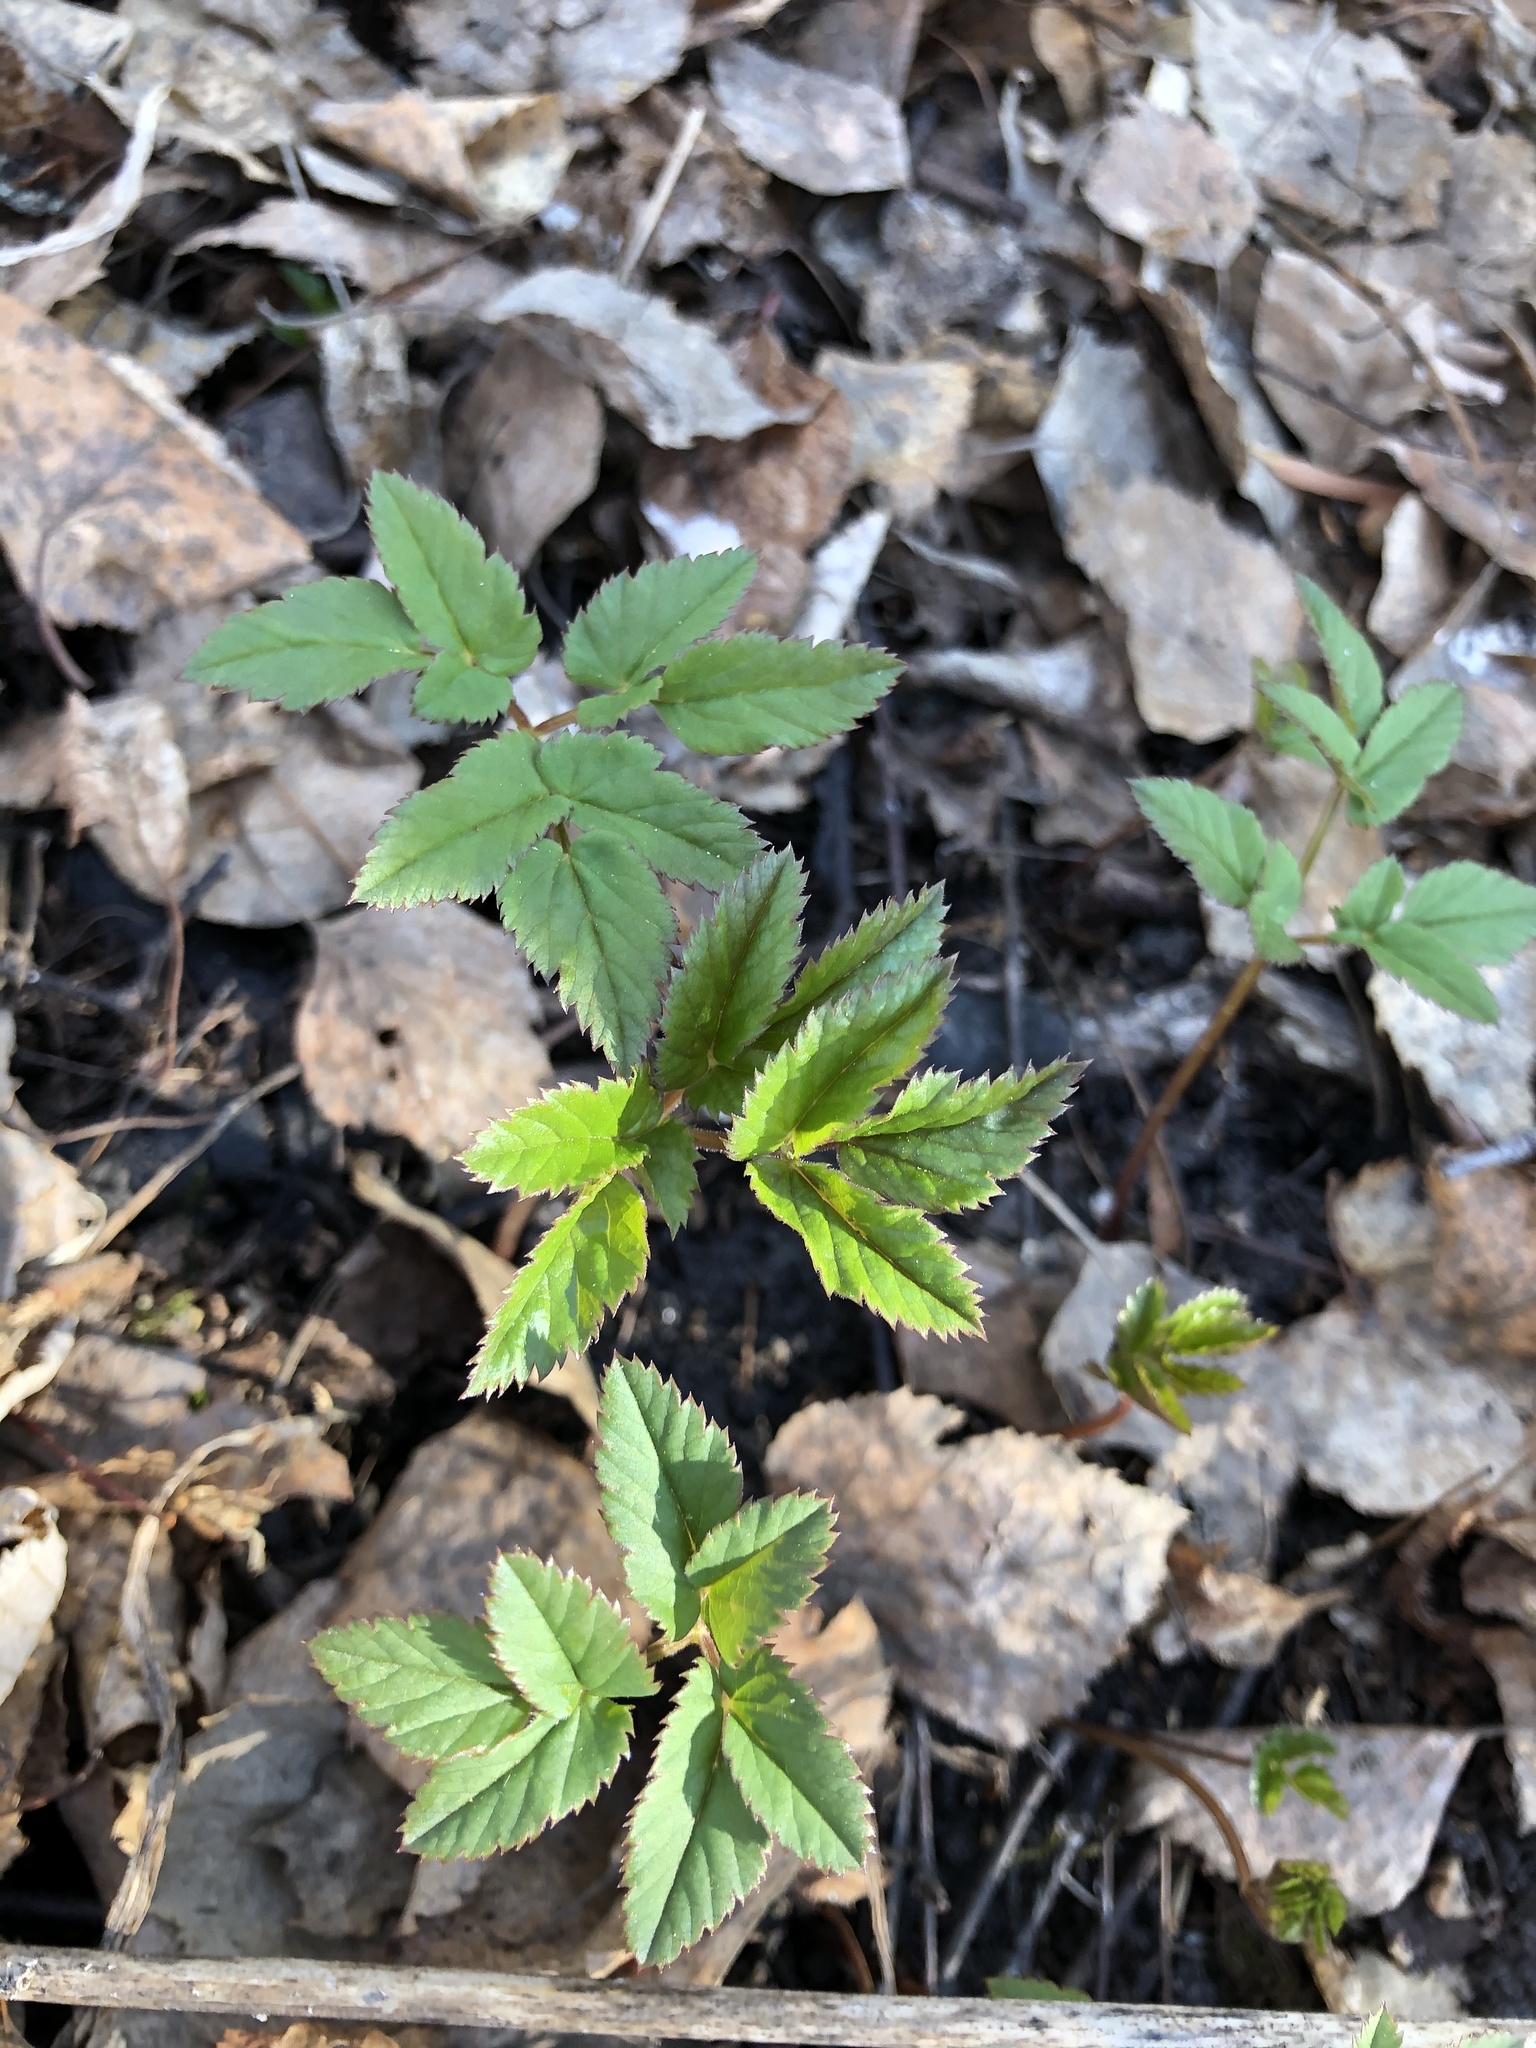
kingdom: Plantae
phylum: Tracheophyta
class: Magnoliopsida
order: Apiales
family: Apiaceae
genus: Aegopodium
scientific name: Aegopodium podagraria
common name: Ground-elder
